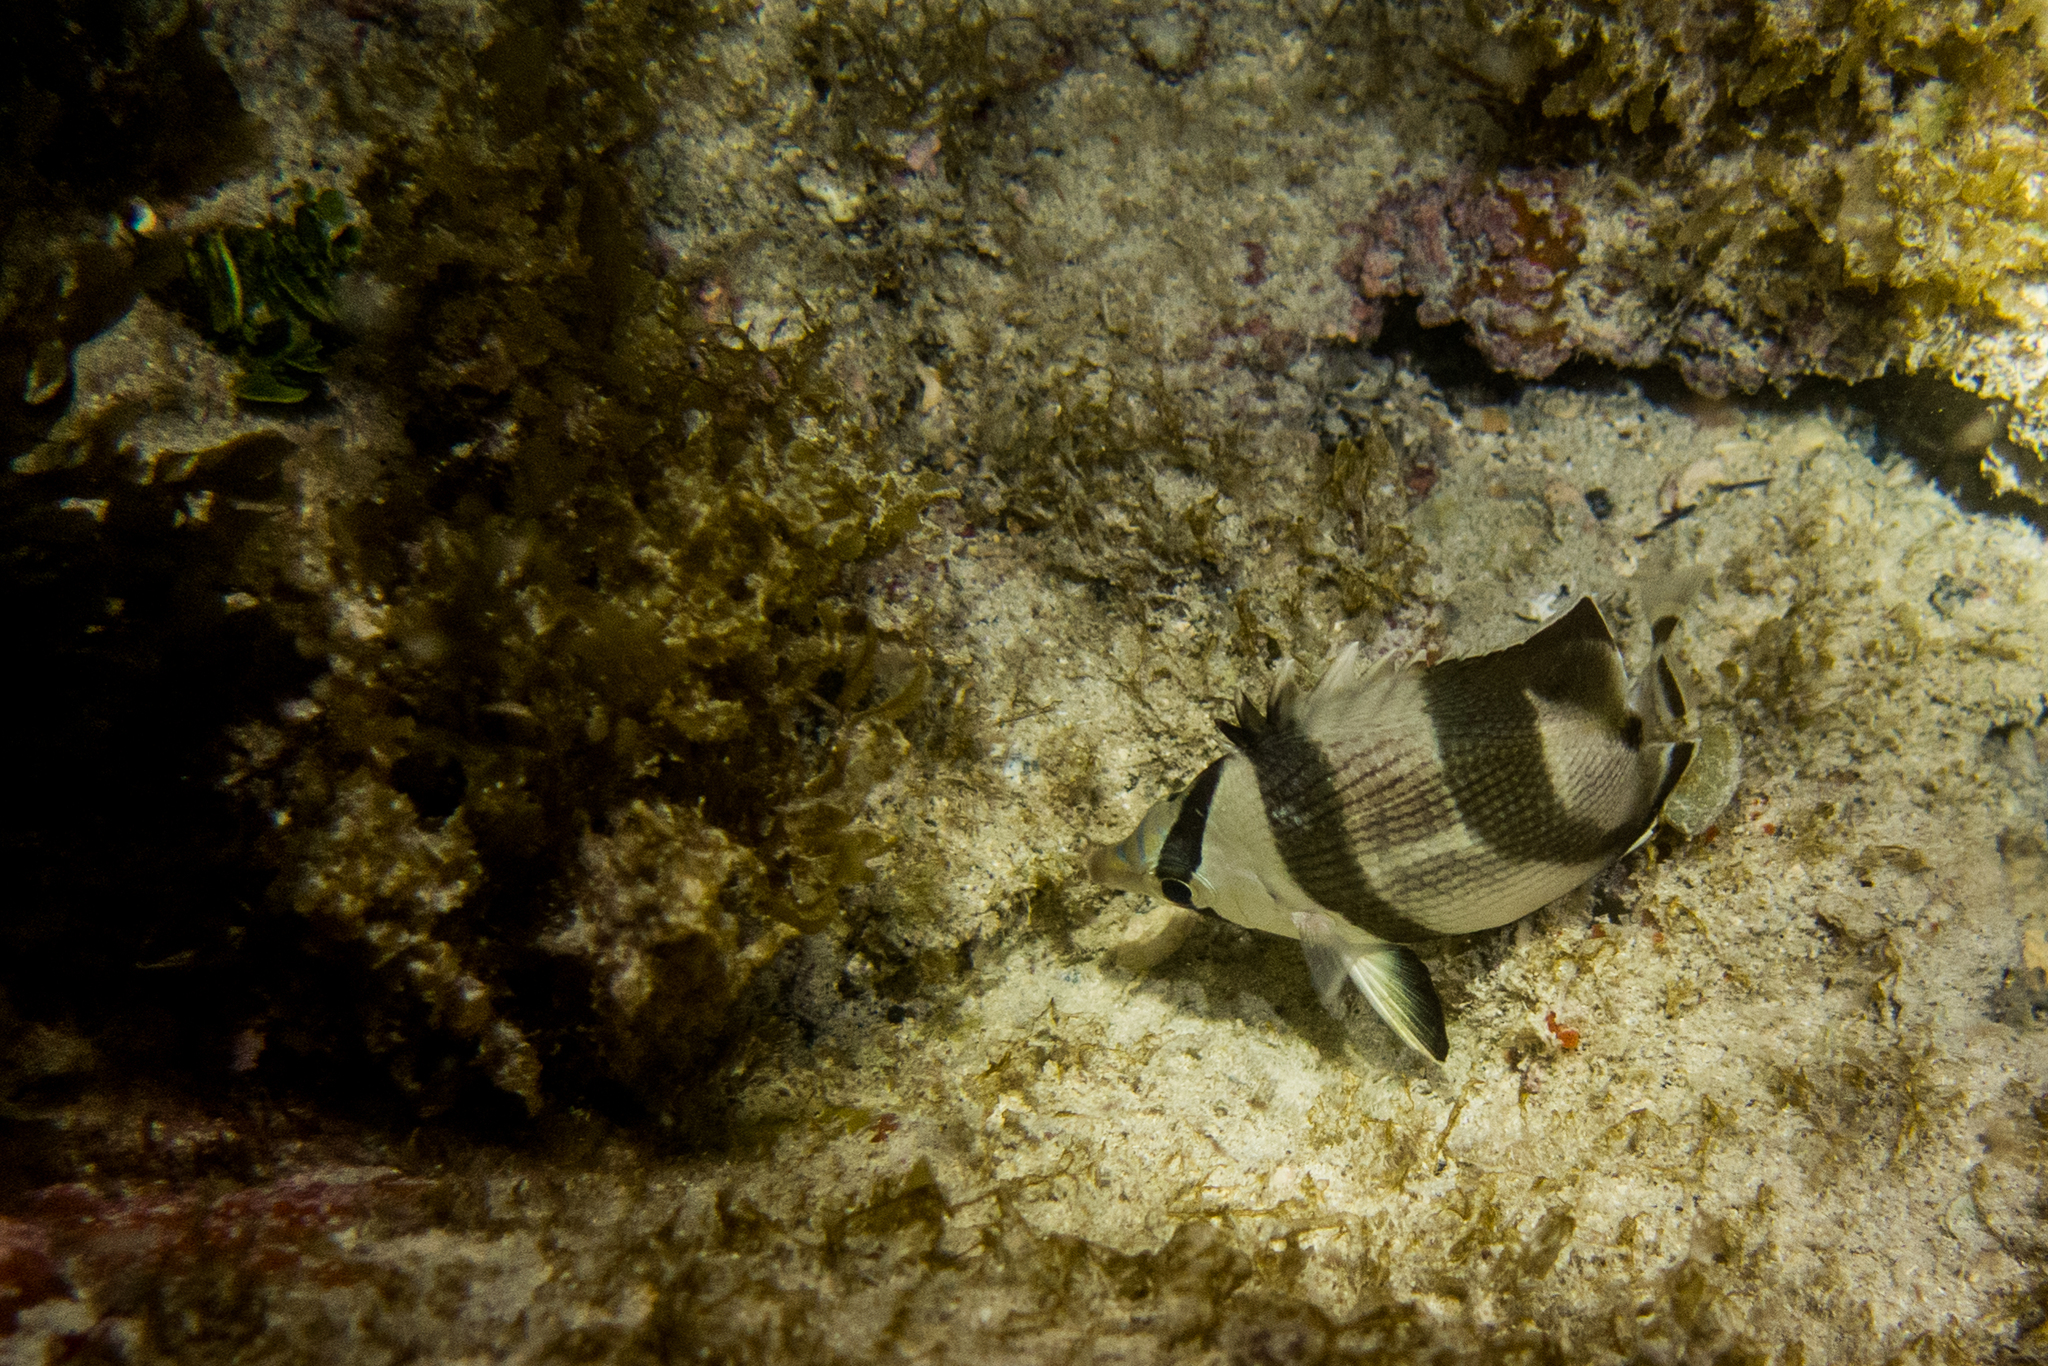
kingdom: Animalia
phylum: Chordata
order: Perciformes
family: Chaetodontidae
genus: Chaetodon
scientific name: Chaetodon striatus
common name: Banded butterflyfish
